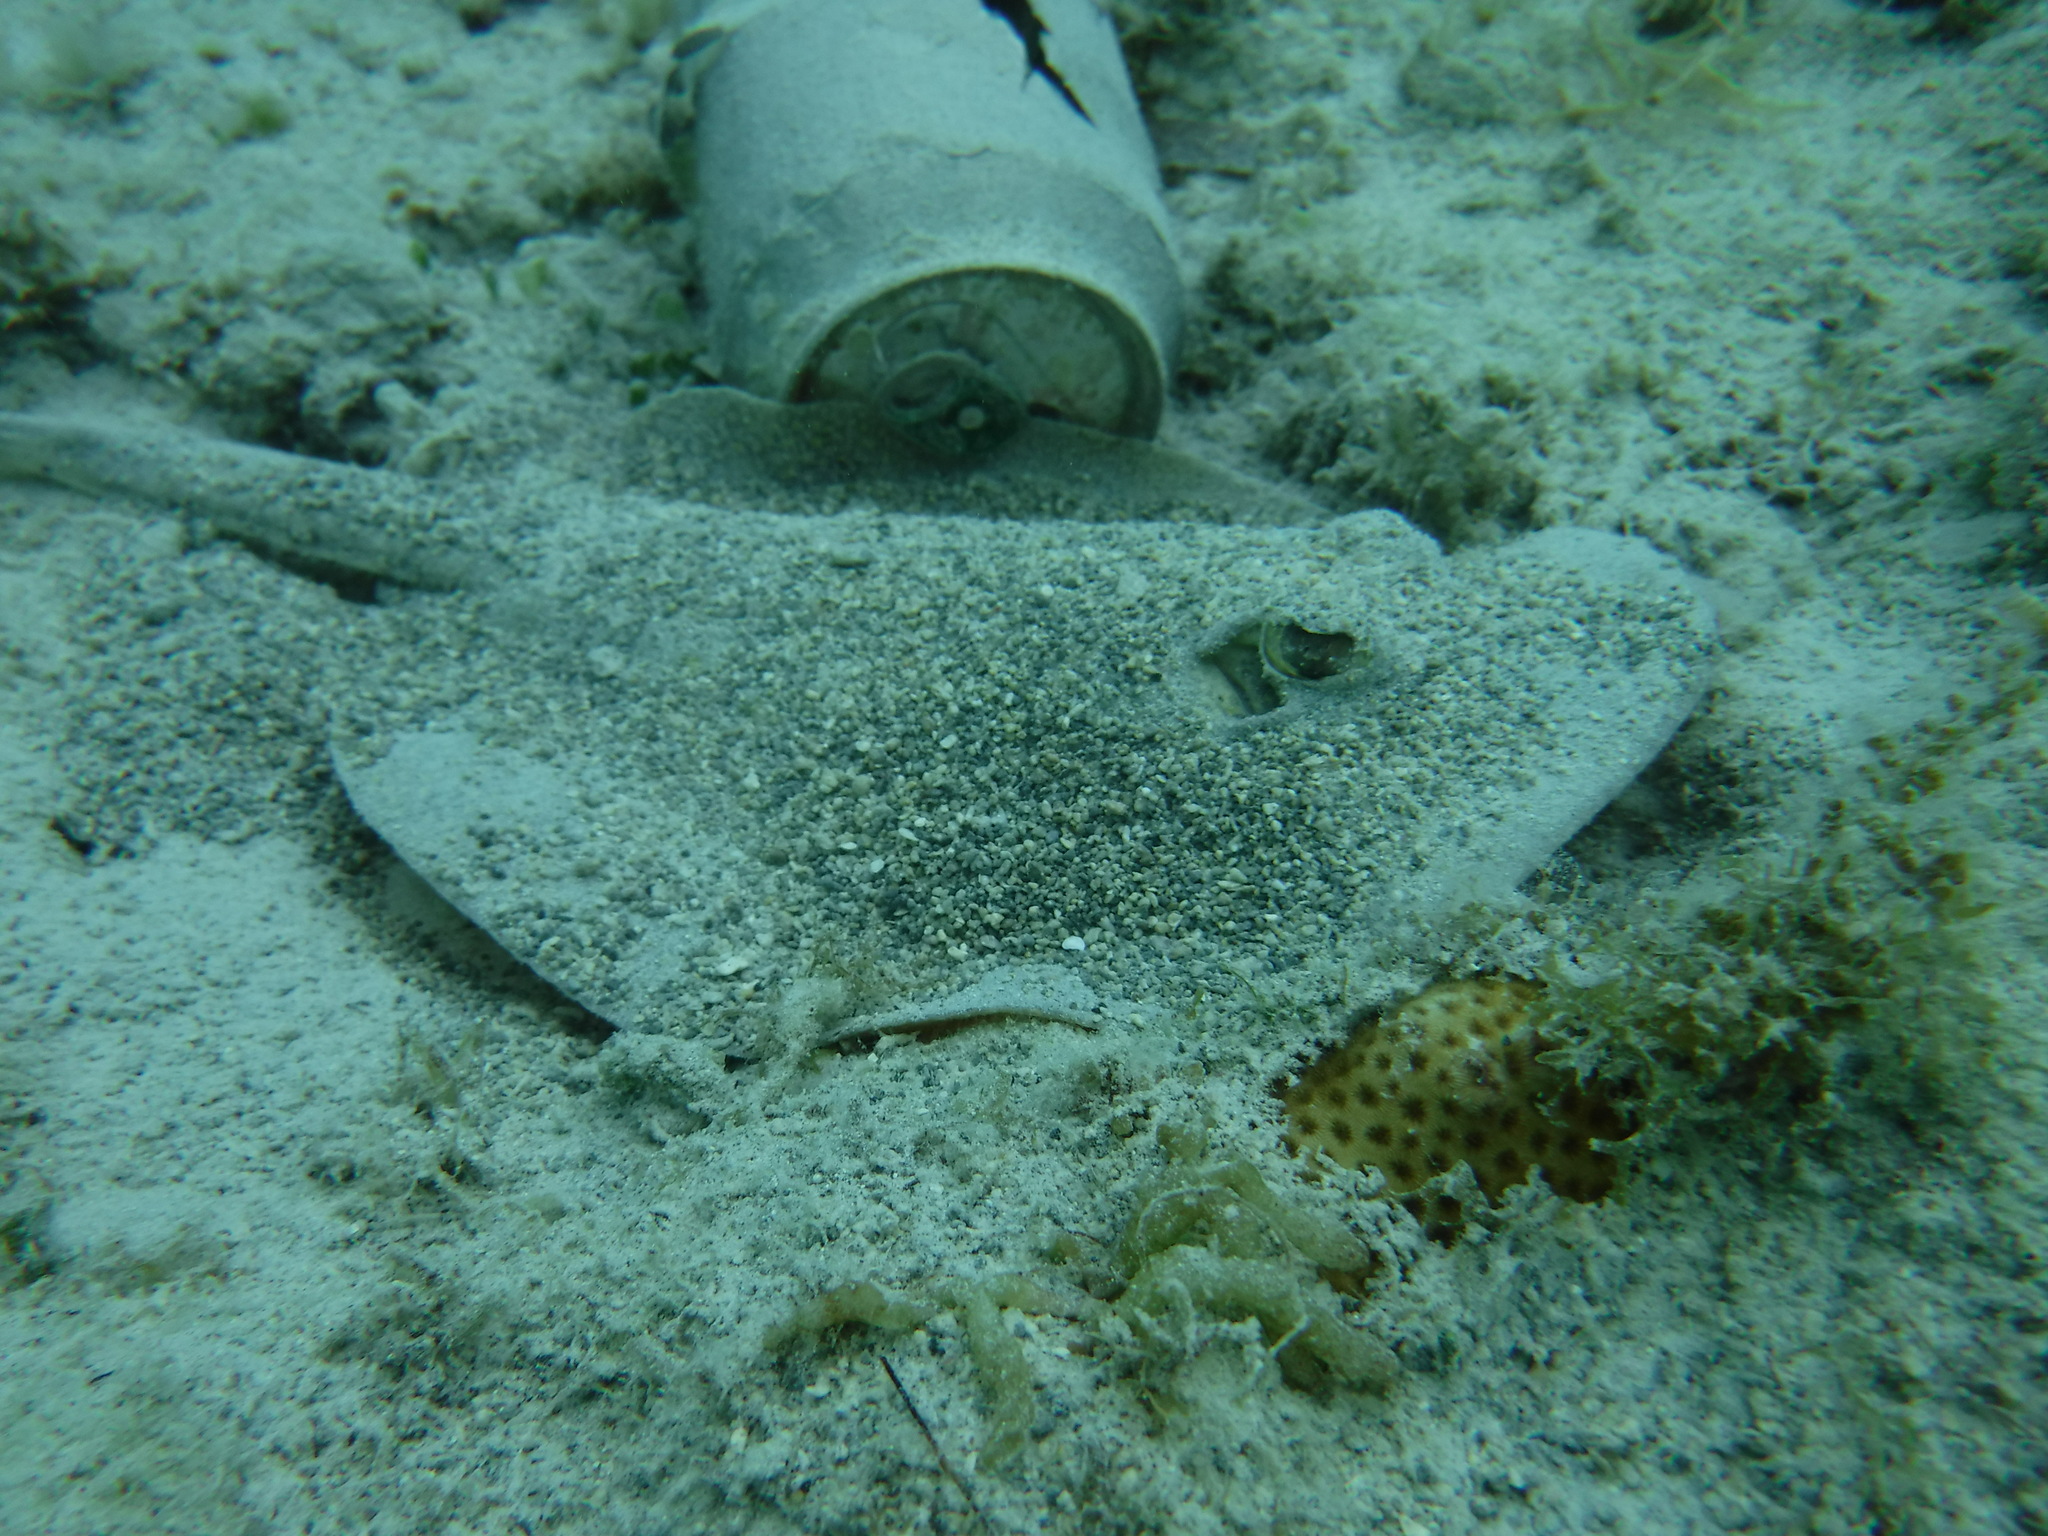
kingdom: Animalia
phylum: Chordata
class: Elasmobranchii
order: Myliobatiformes
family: Urotrygonidae
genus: Urobatis
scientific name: Urobatis jamaicensis
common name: Yellow stingray
